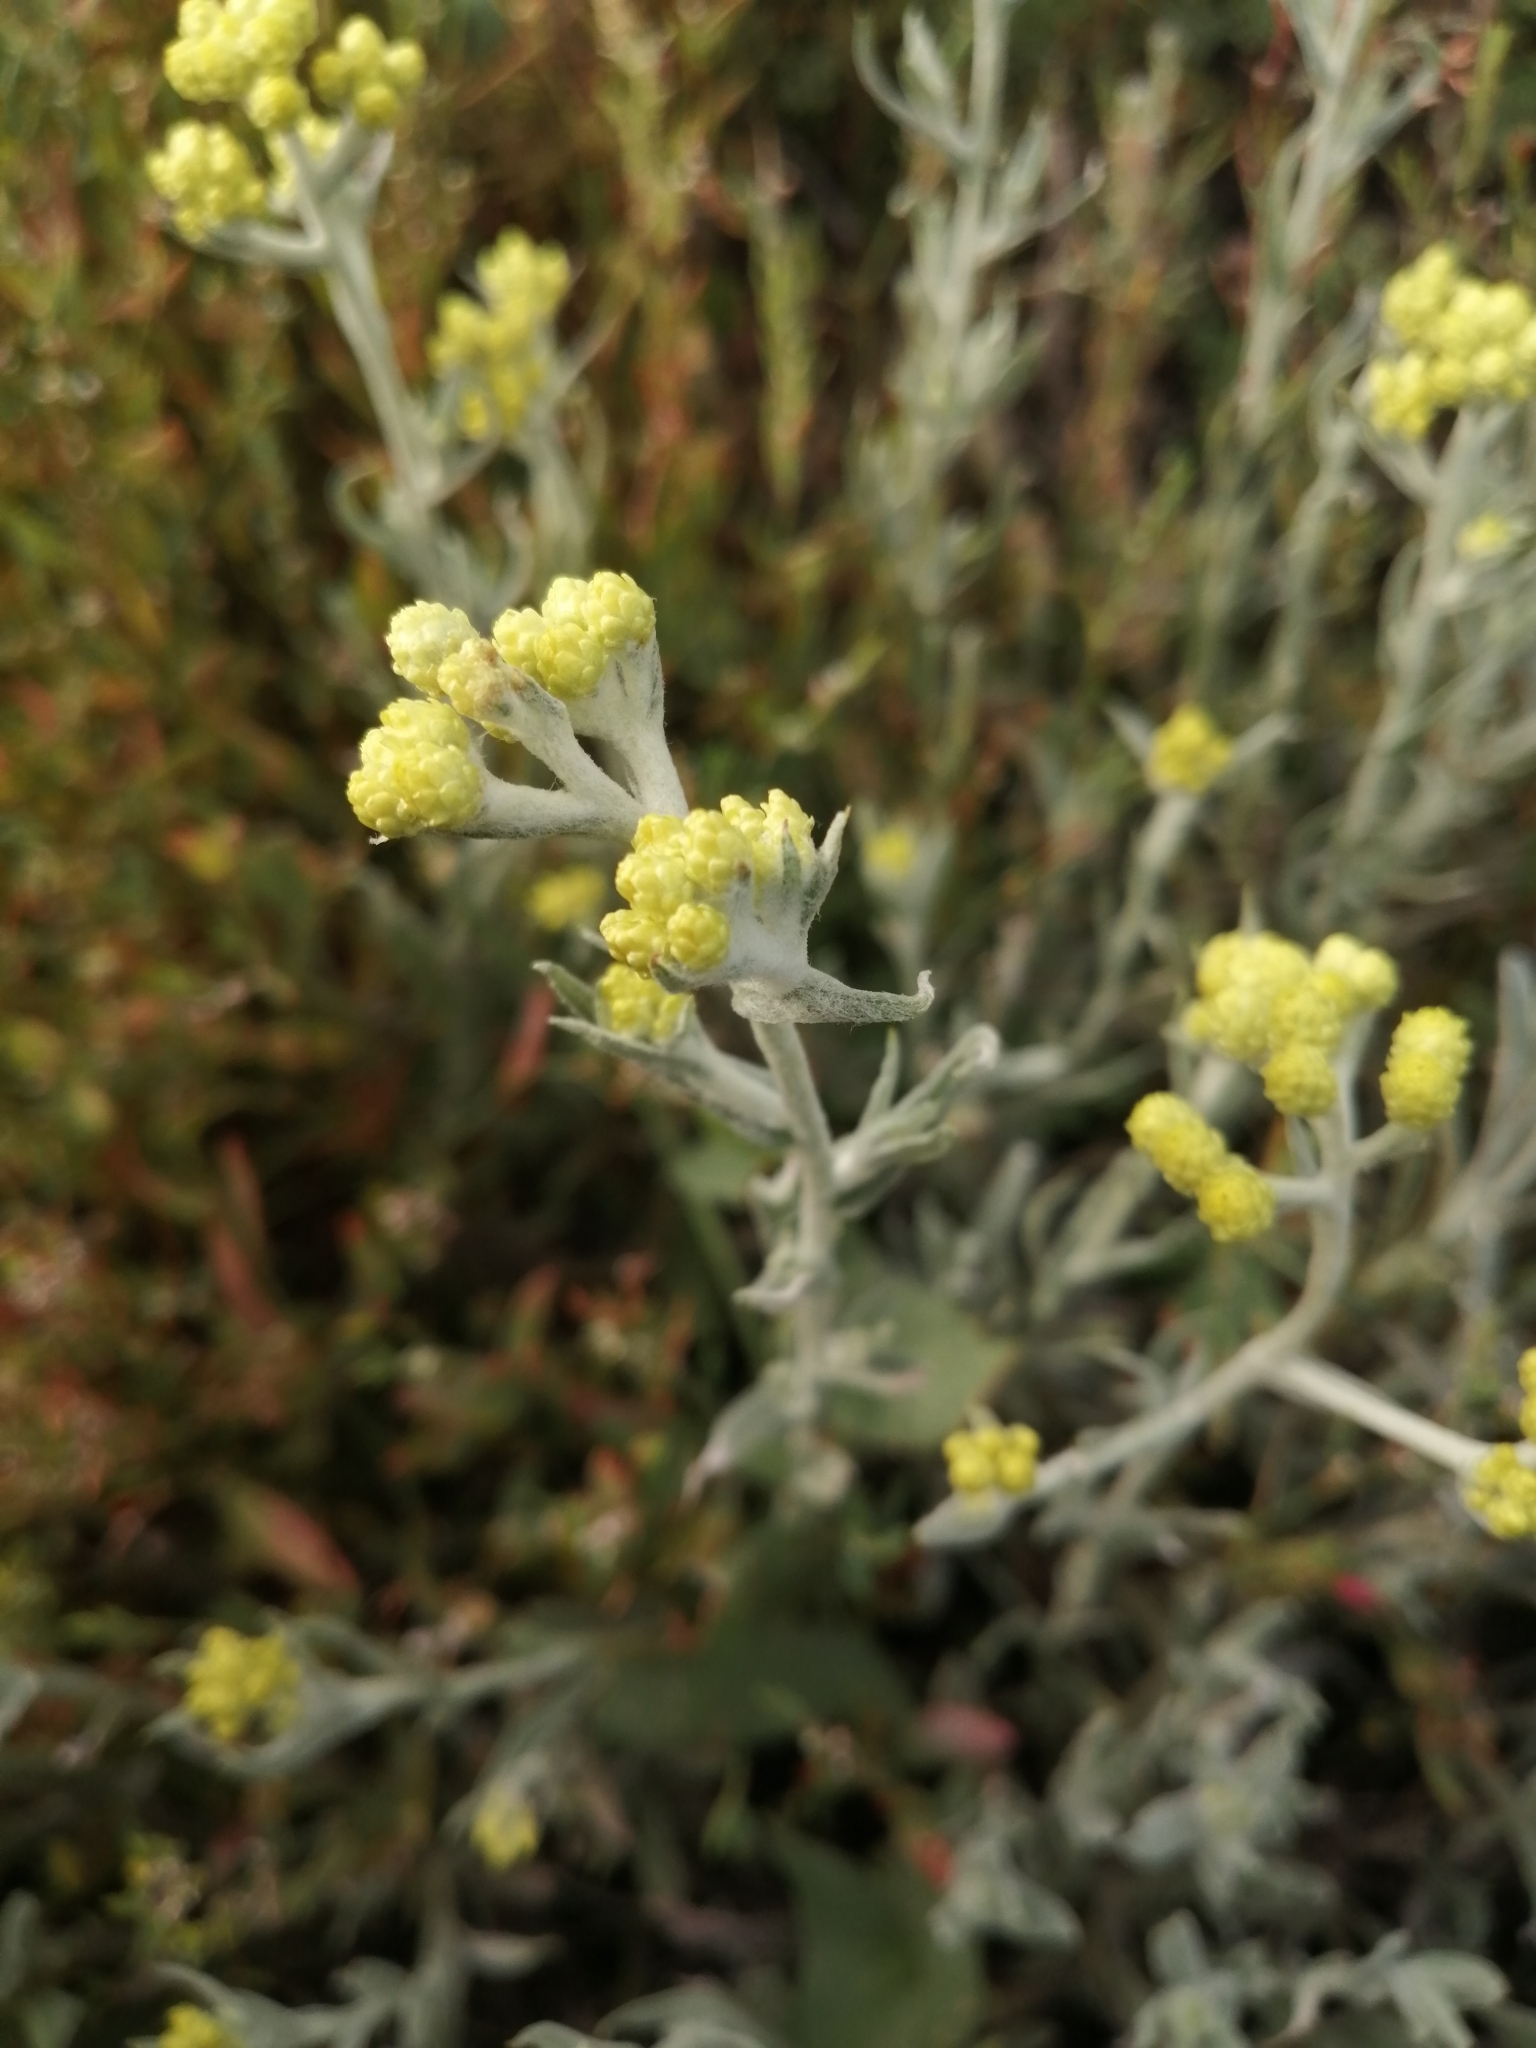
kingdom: Plantae
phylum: Tracheophyta
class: Magnoliopsida
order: Asterales
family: Asteraceae
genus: Helichrysum
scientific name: Helichrysum arenarium
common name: Strawflower
